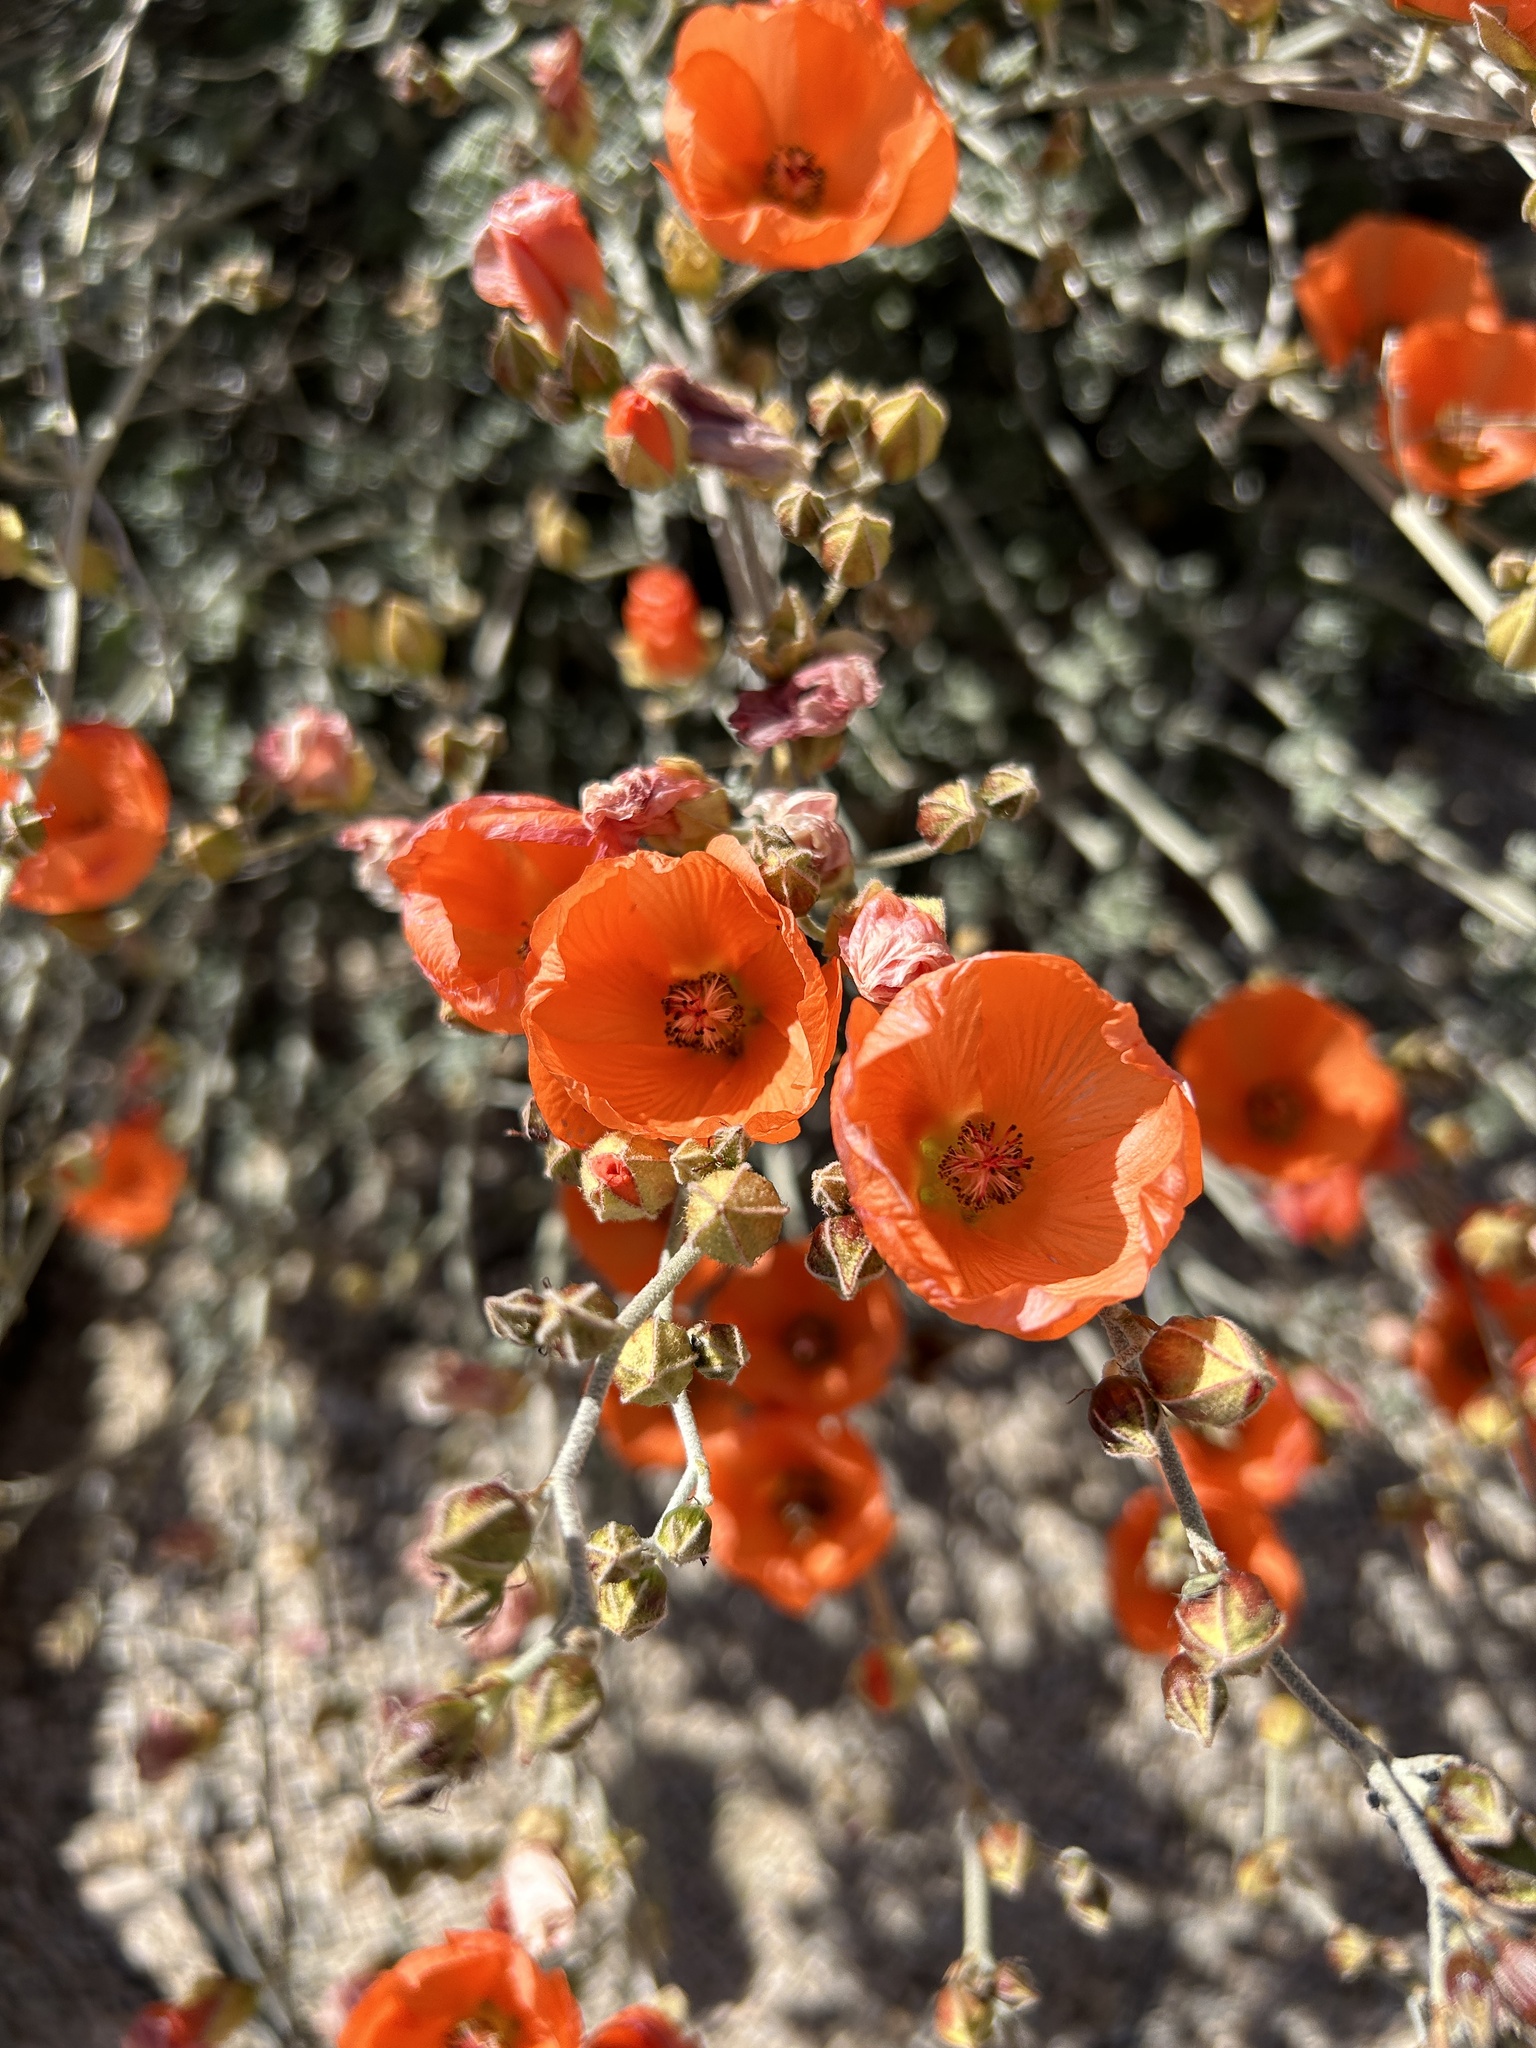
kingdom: Plantae
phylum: Tracheophyta
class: Magnoliopsida
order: Malvales
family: Malvaceae
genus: Sphaeralcea
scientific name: Sphaeralcea ambigua
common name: Apricot globe-mallow
